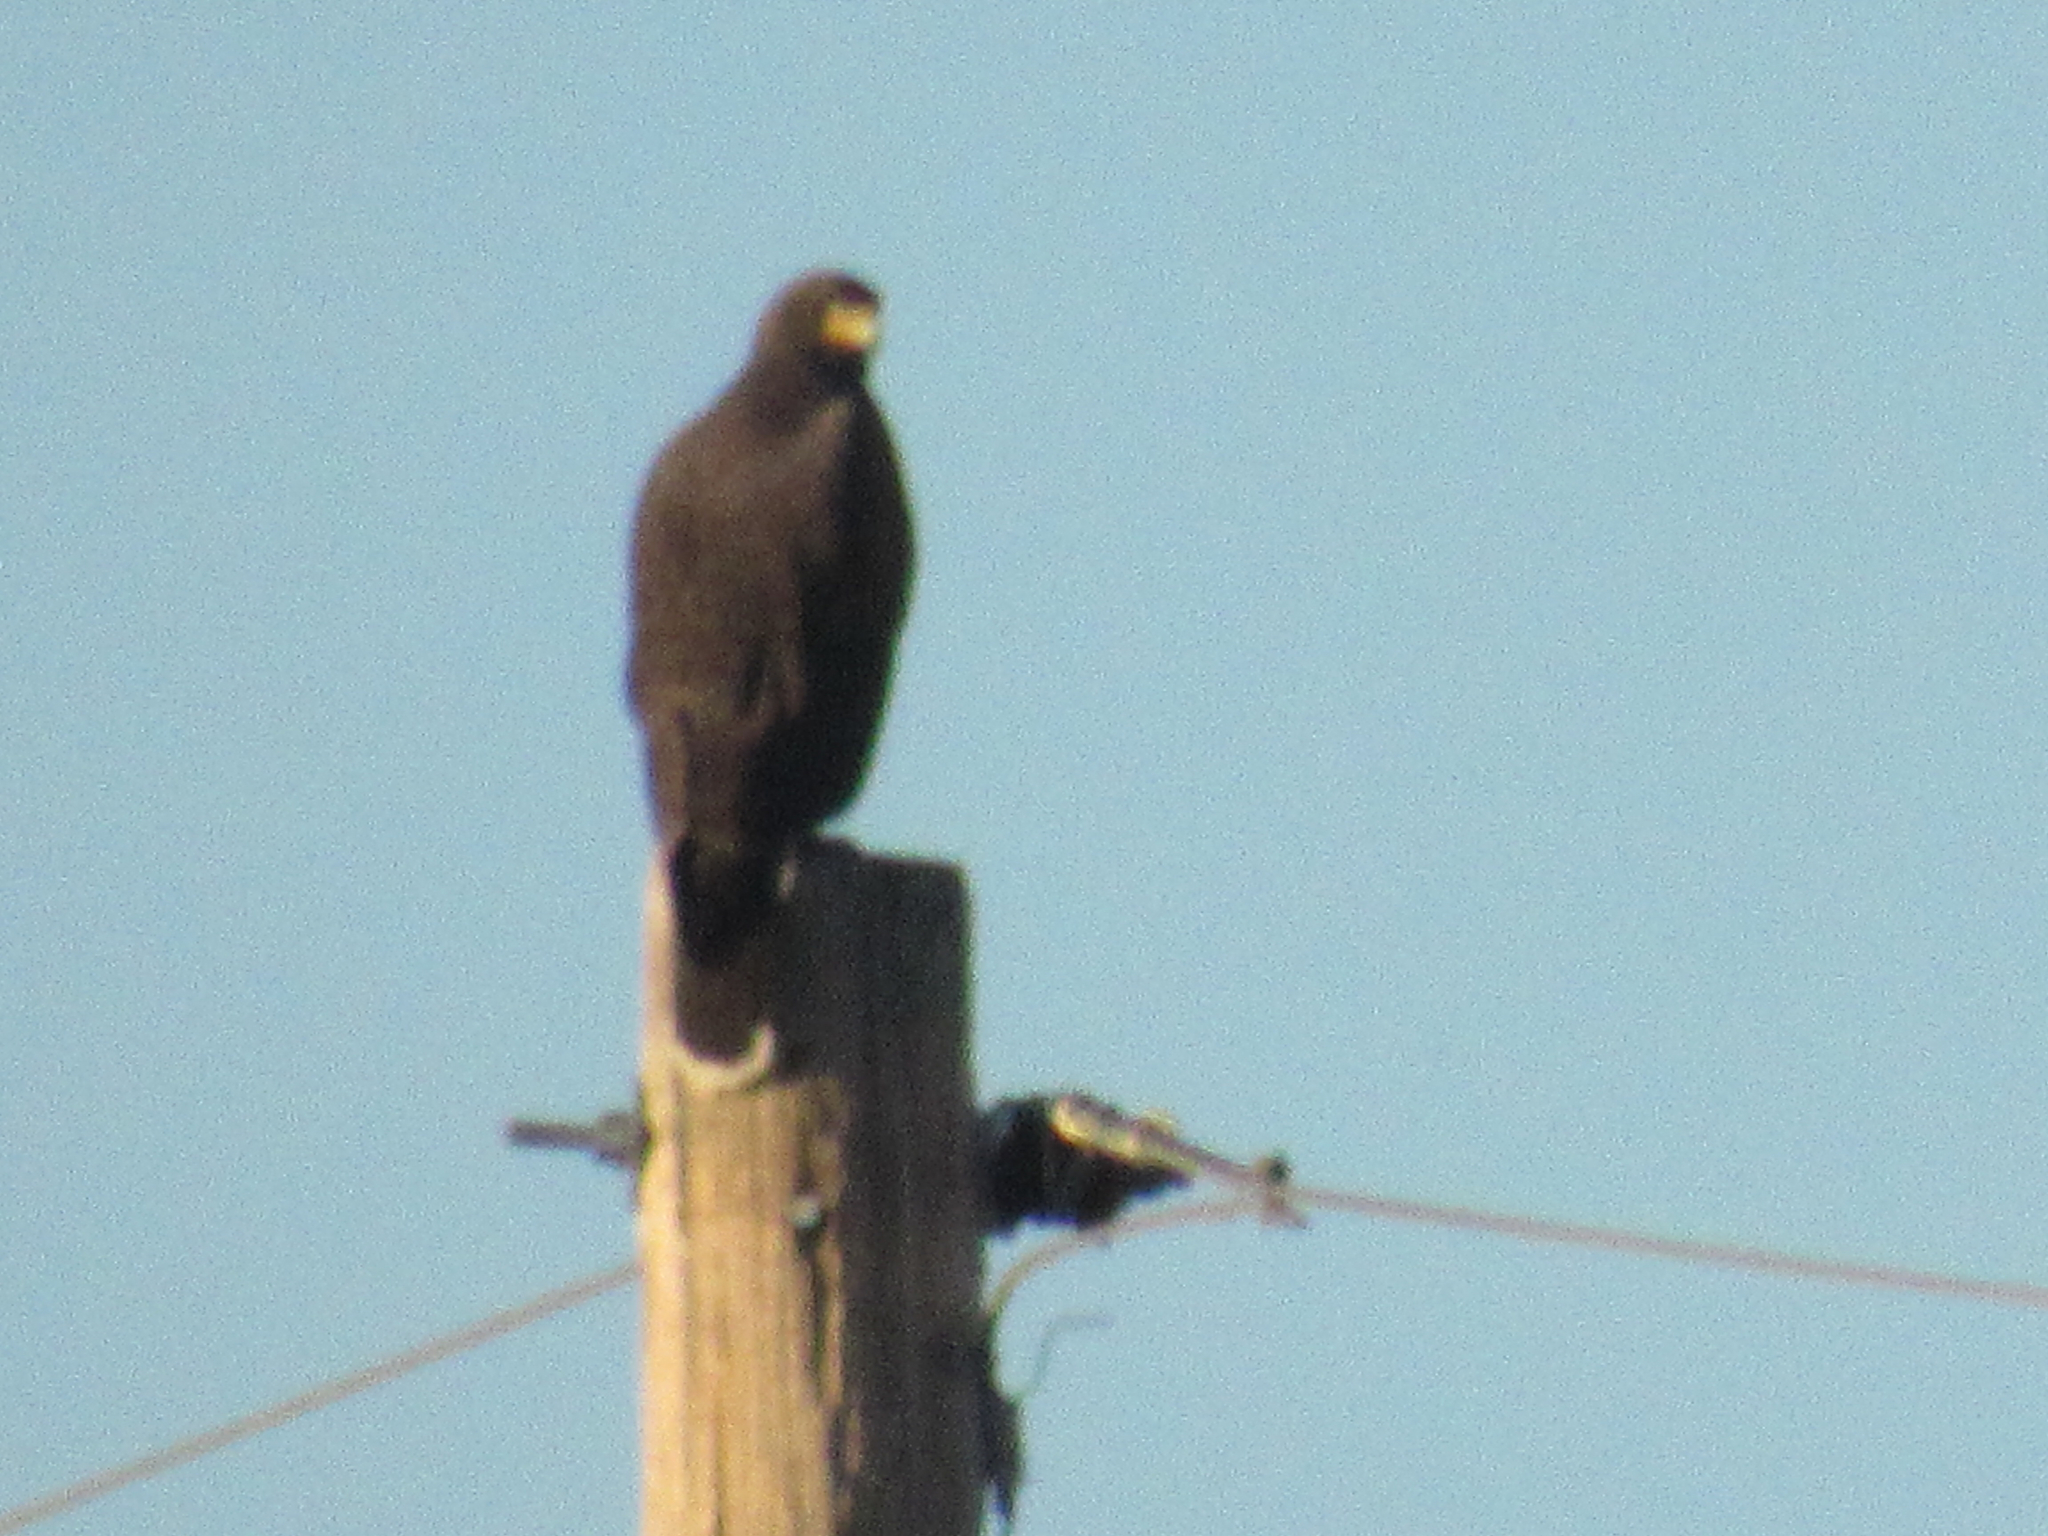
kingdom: Animalia
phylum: Chordata
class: Aves
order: Accipitriformes
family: Accipitridae
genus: Parabuteo
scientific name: Parabuteo unicinctus
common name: Harris's hawk
